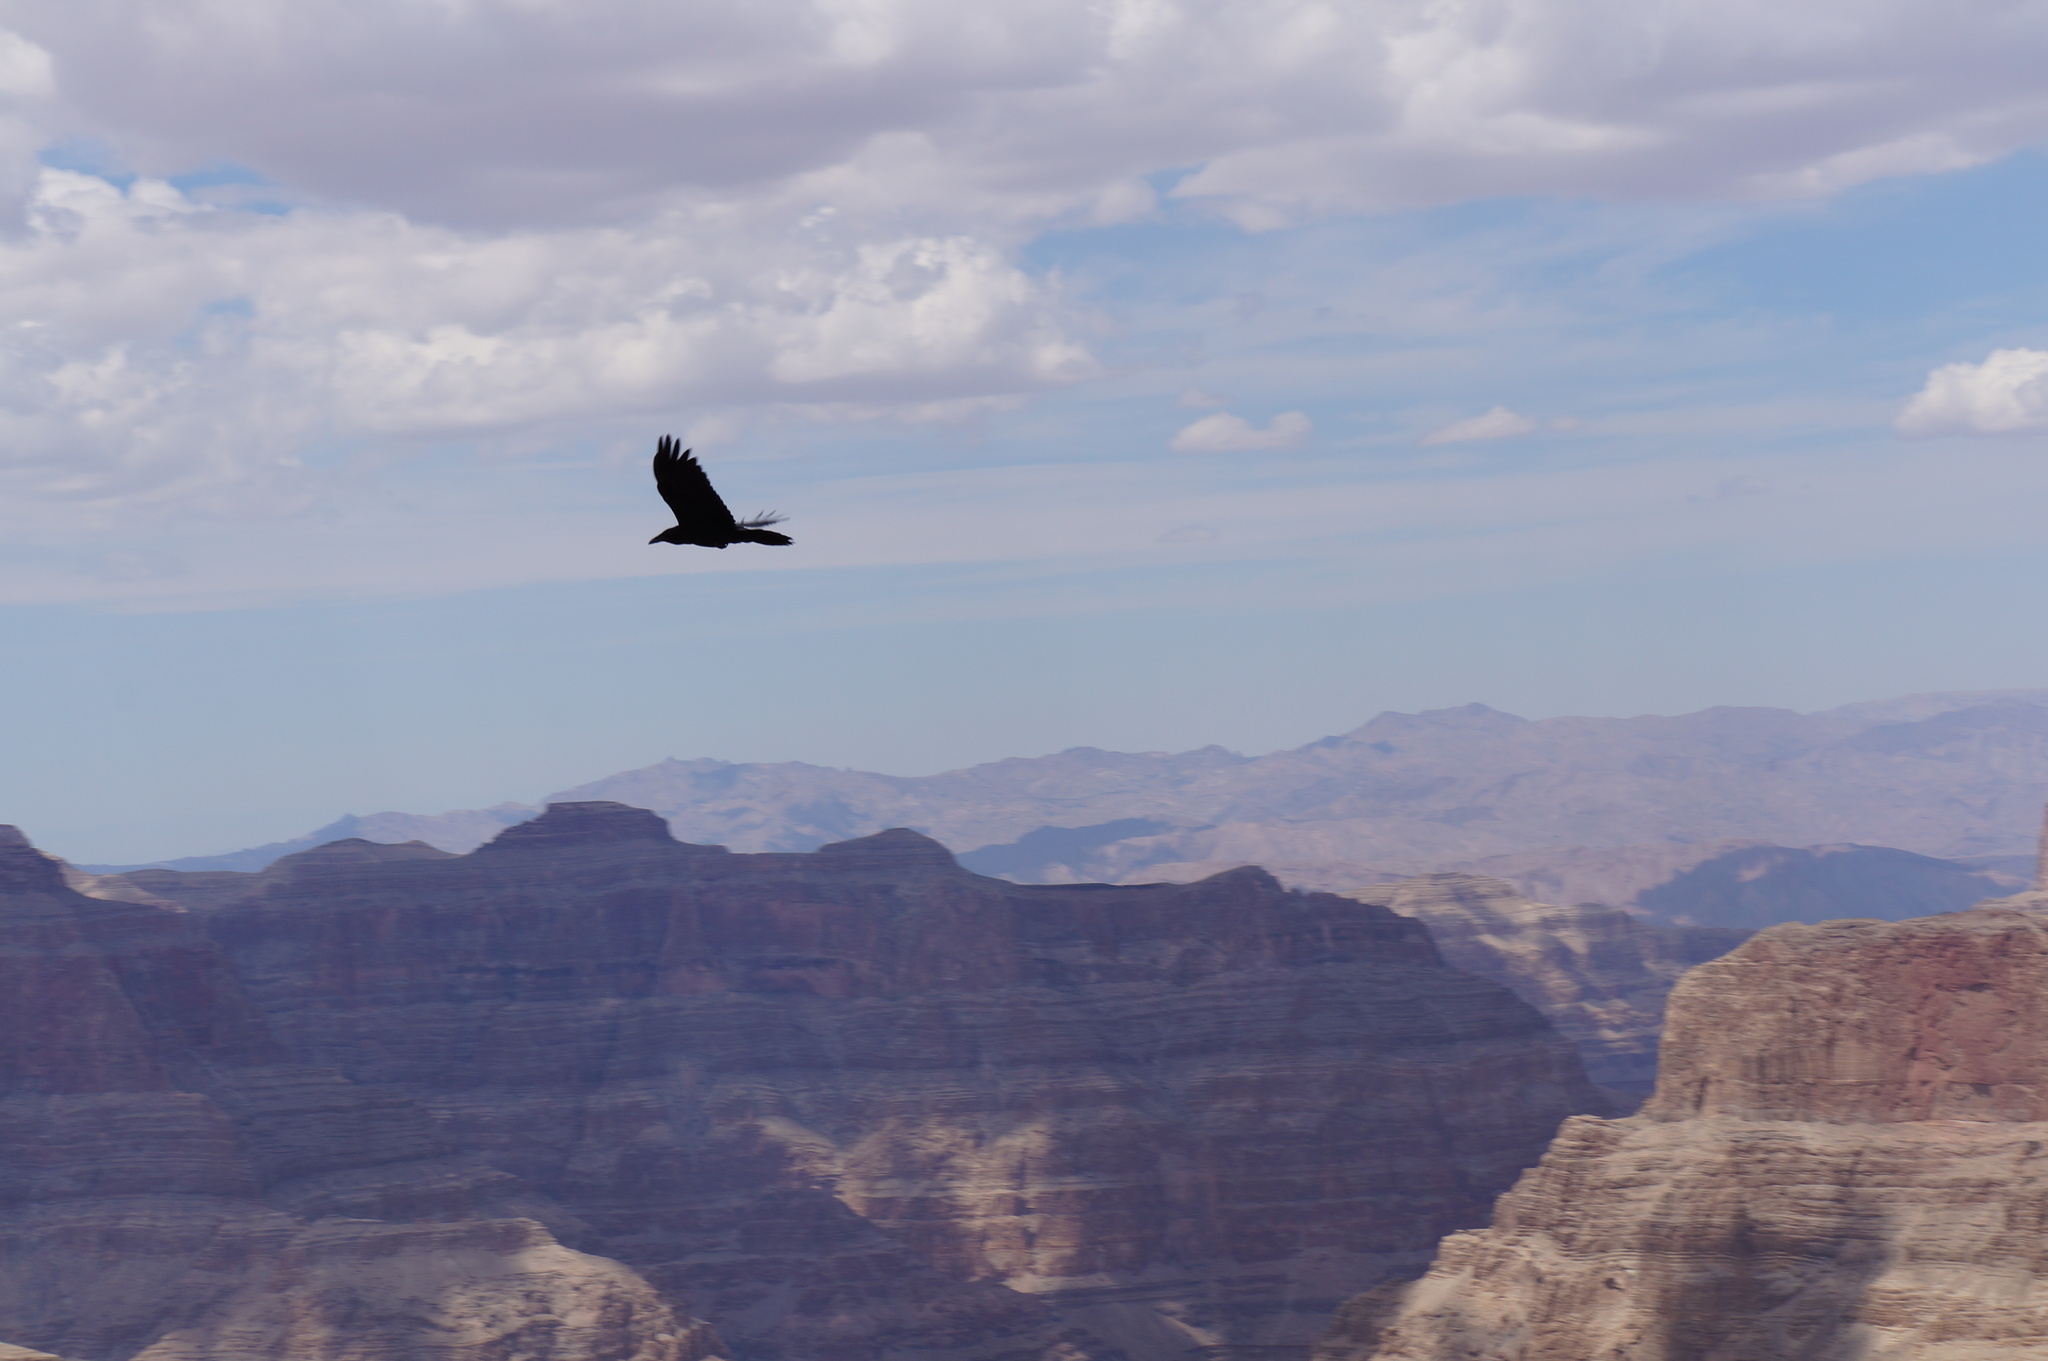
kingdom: Animalia
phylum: Chordata
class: Aves
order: Passeriformes
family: Corvidae
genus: Corvus
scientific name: Corvus corax
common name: Common raven
